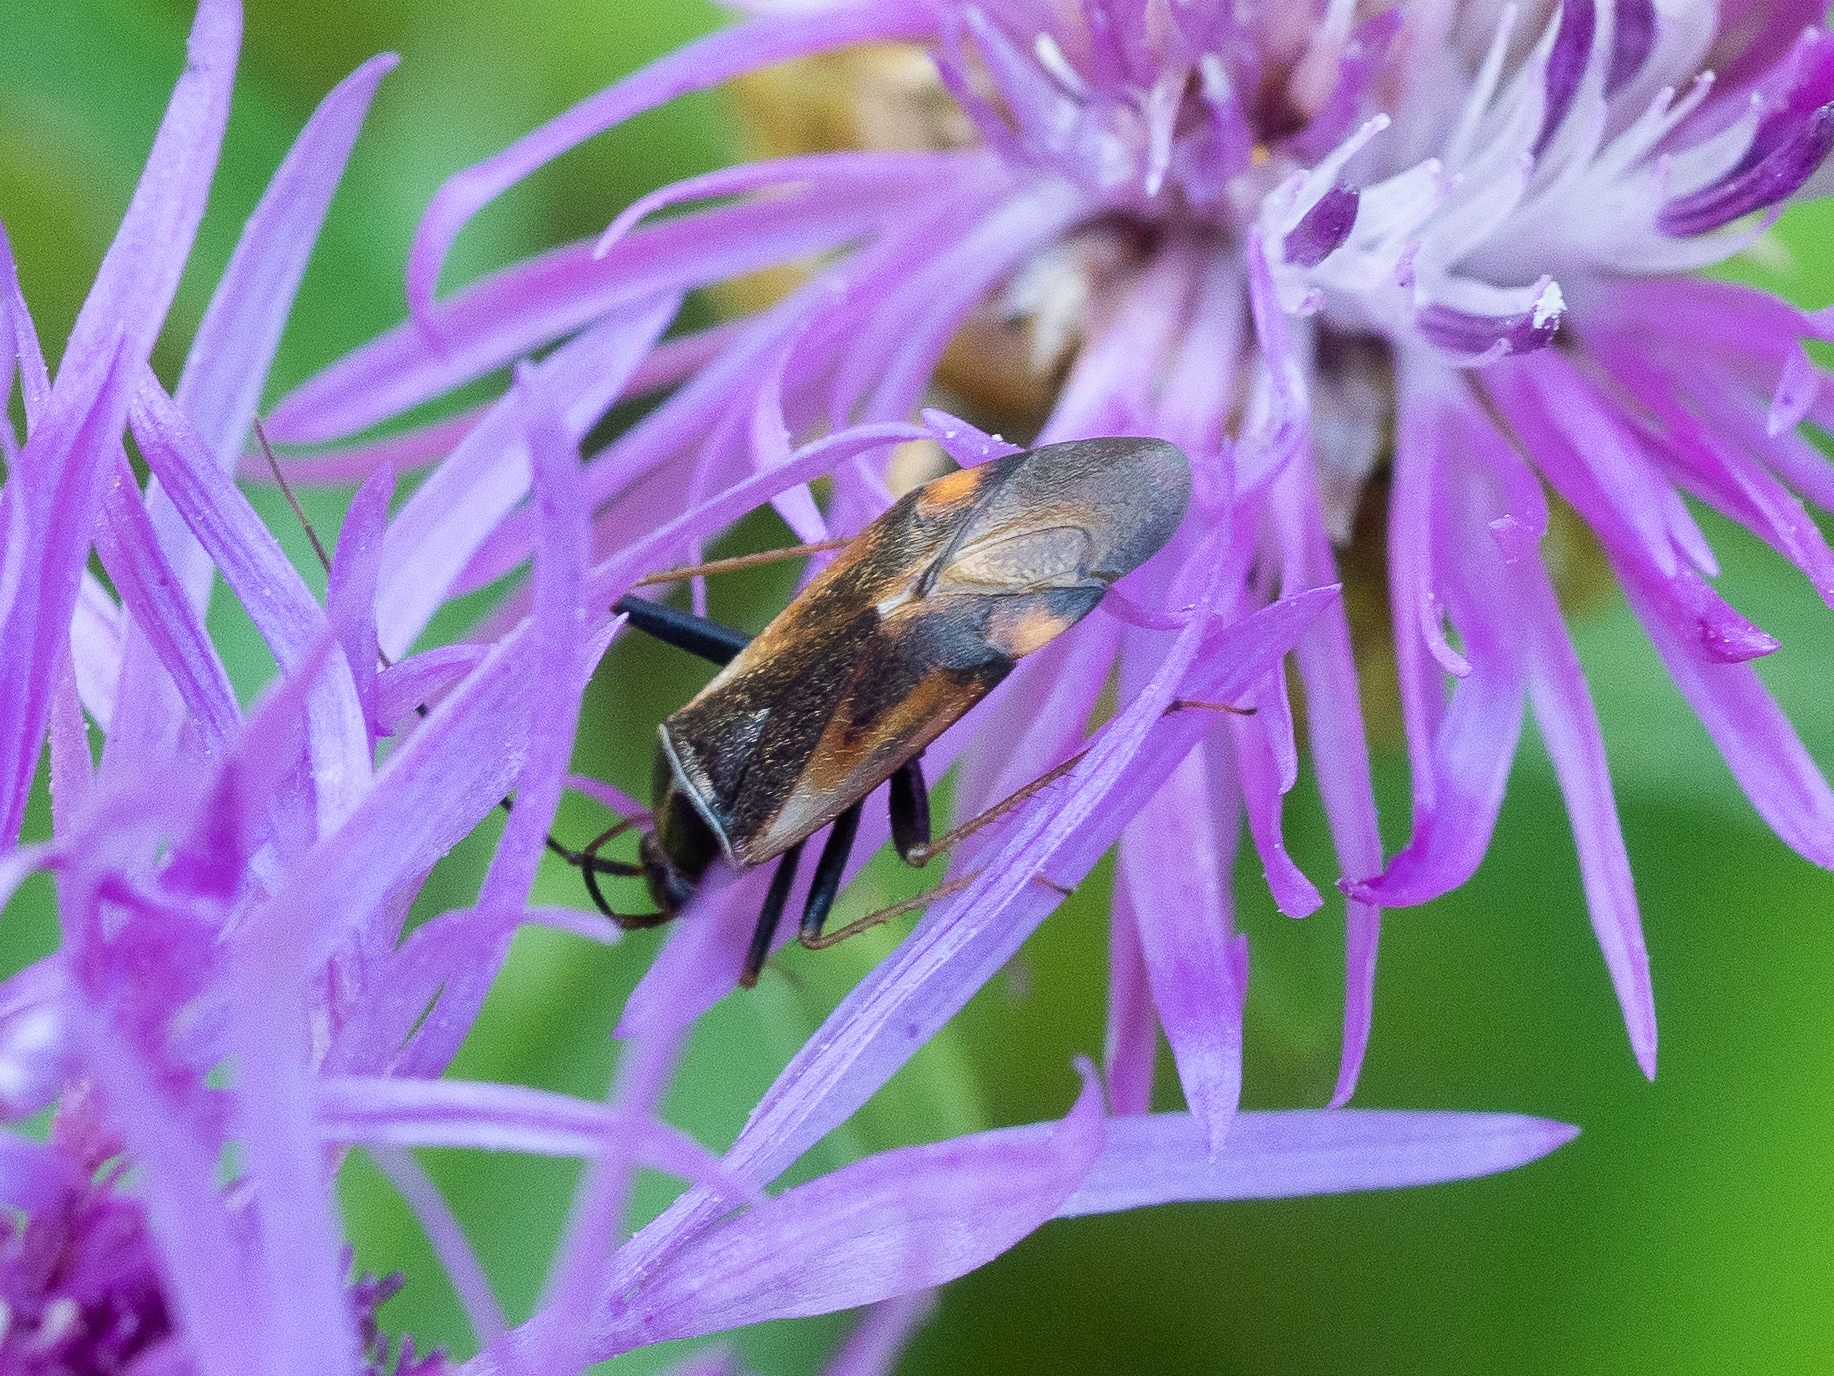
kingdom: Animalia
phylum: Arthropoda
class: Insecta
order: Hemiptera
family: Miridae
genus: Adelphocoris
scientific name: Adelphocoris seticornis
